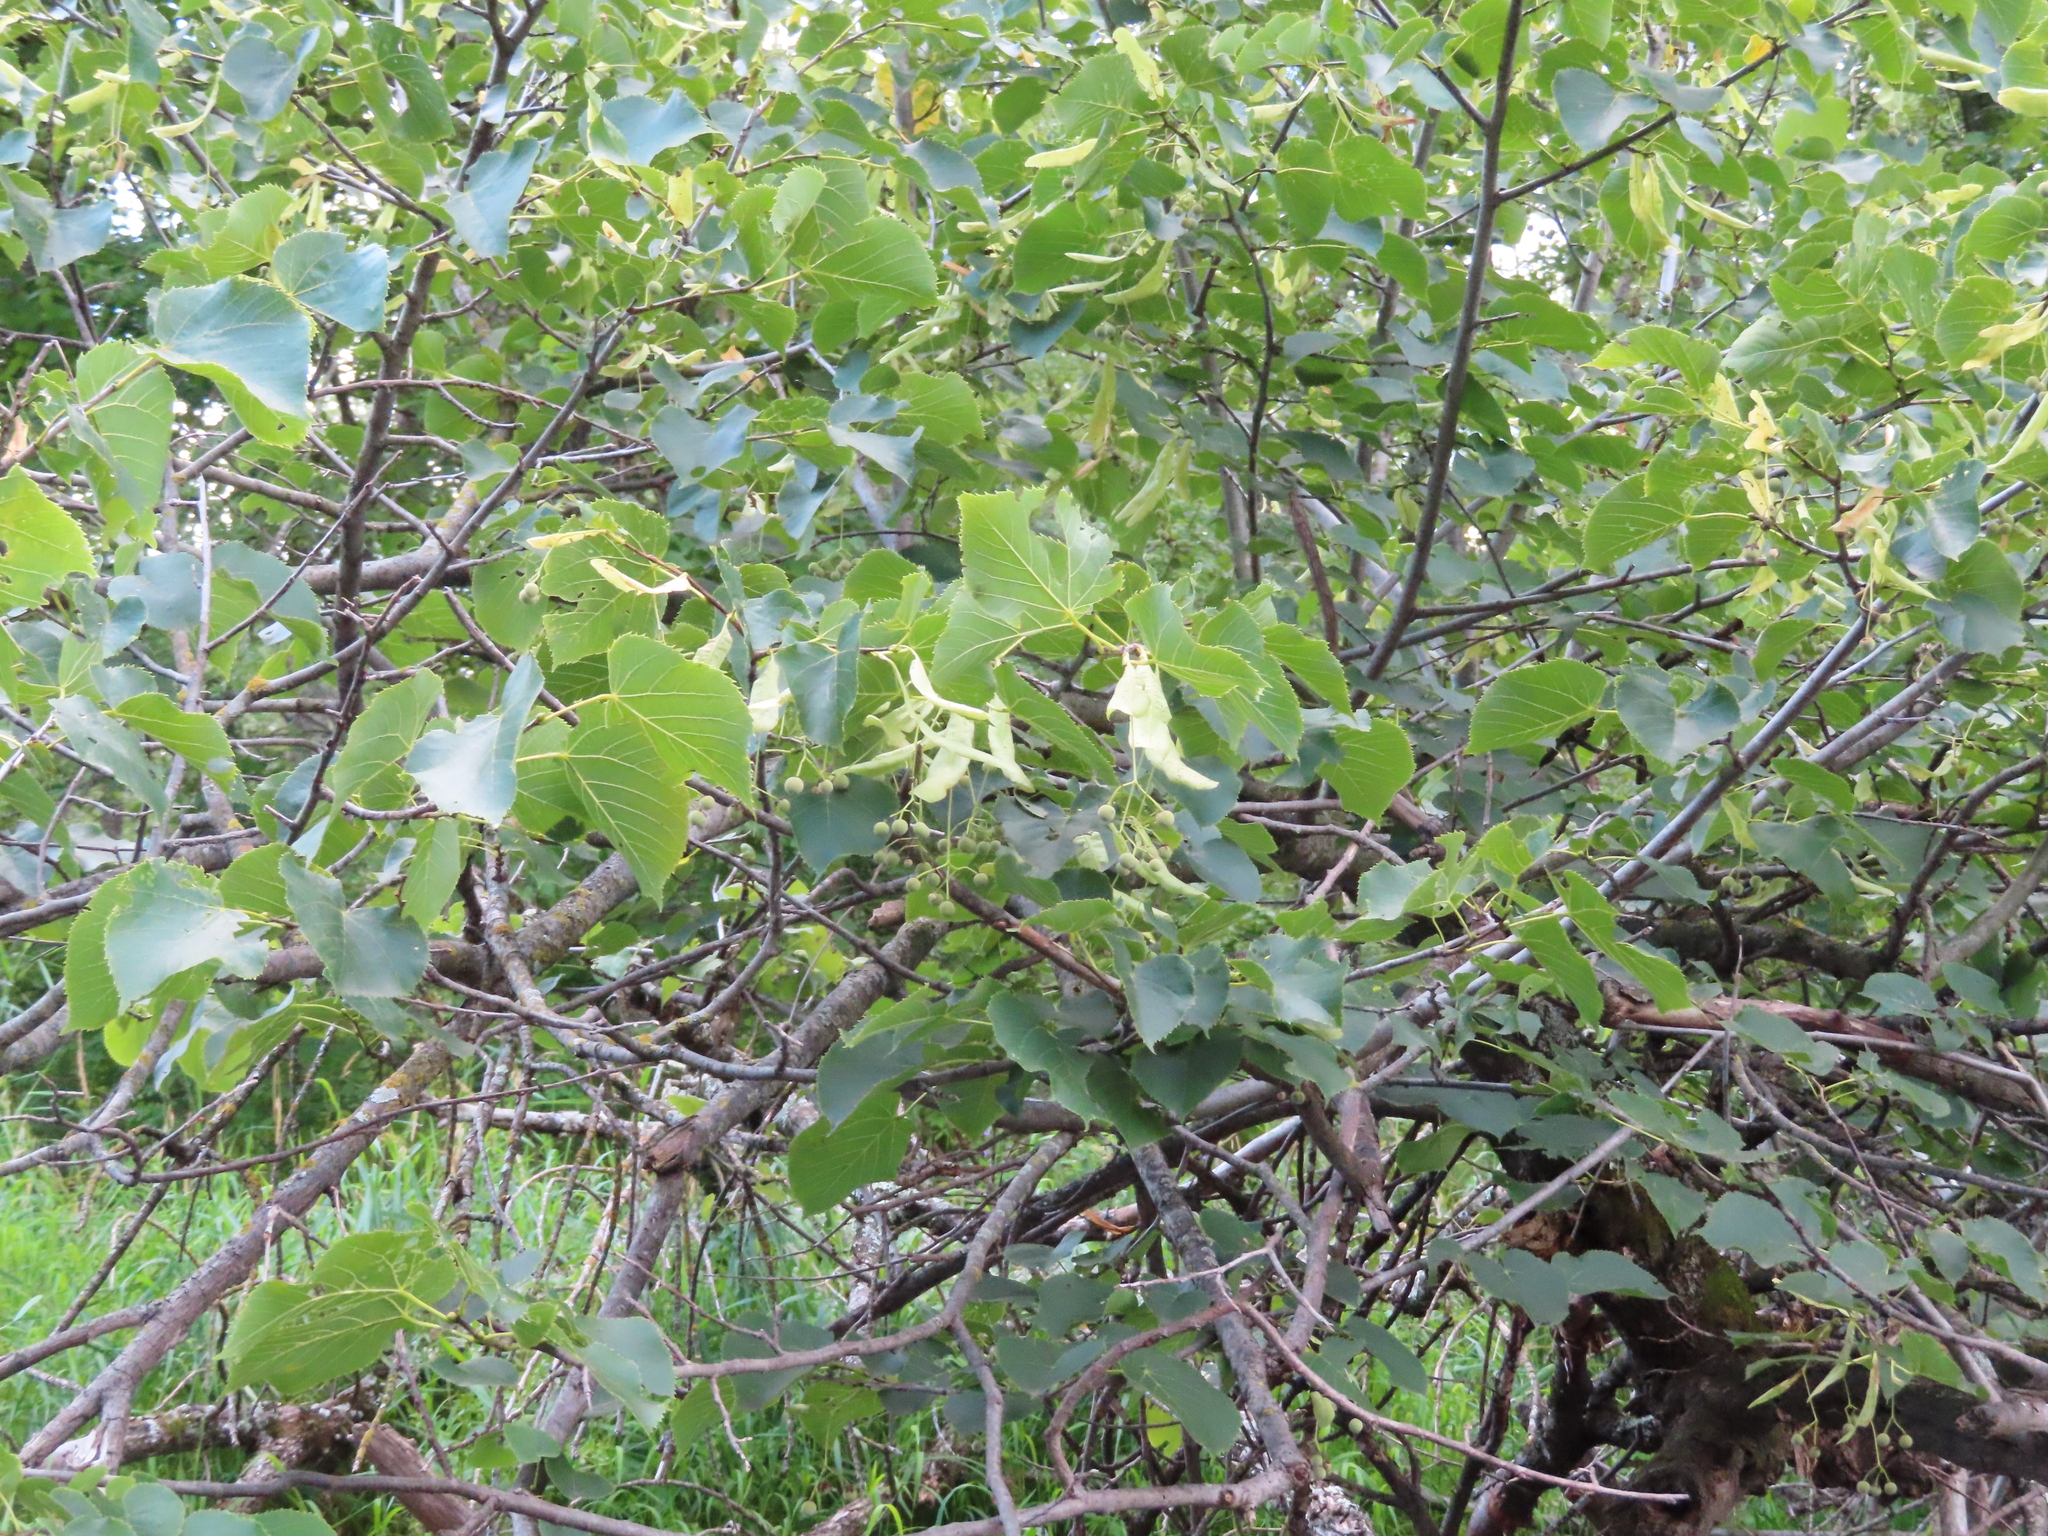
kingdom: Plantae
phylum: Tracheophyta
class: Magnoliopsida
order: Malvales
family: Malvaceae
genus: Tilia
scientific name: Tilia americana
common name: Basswood
